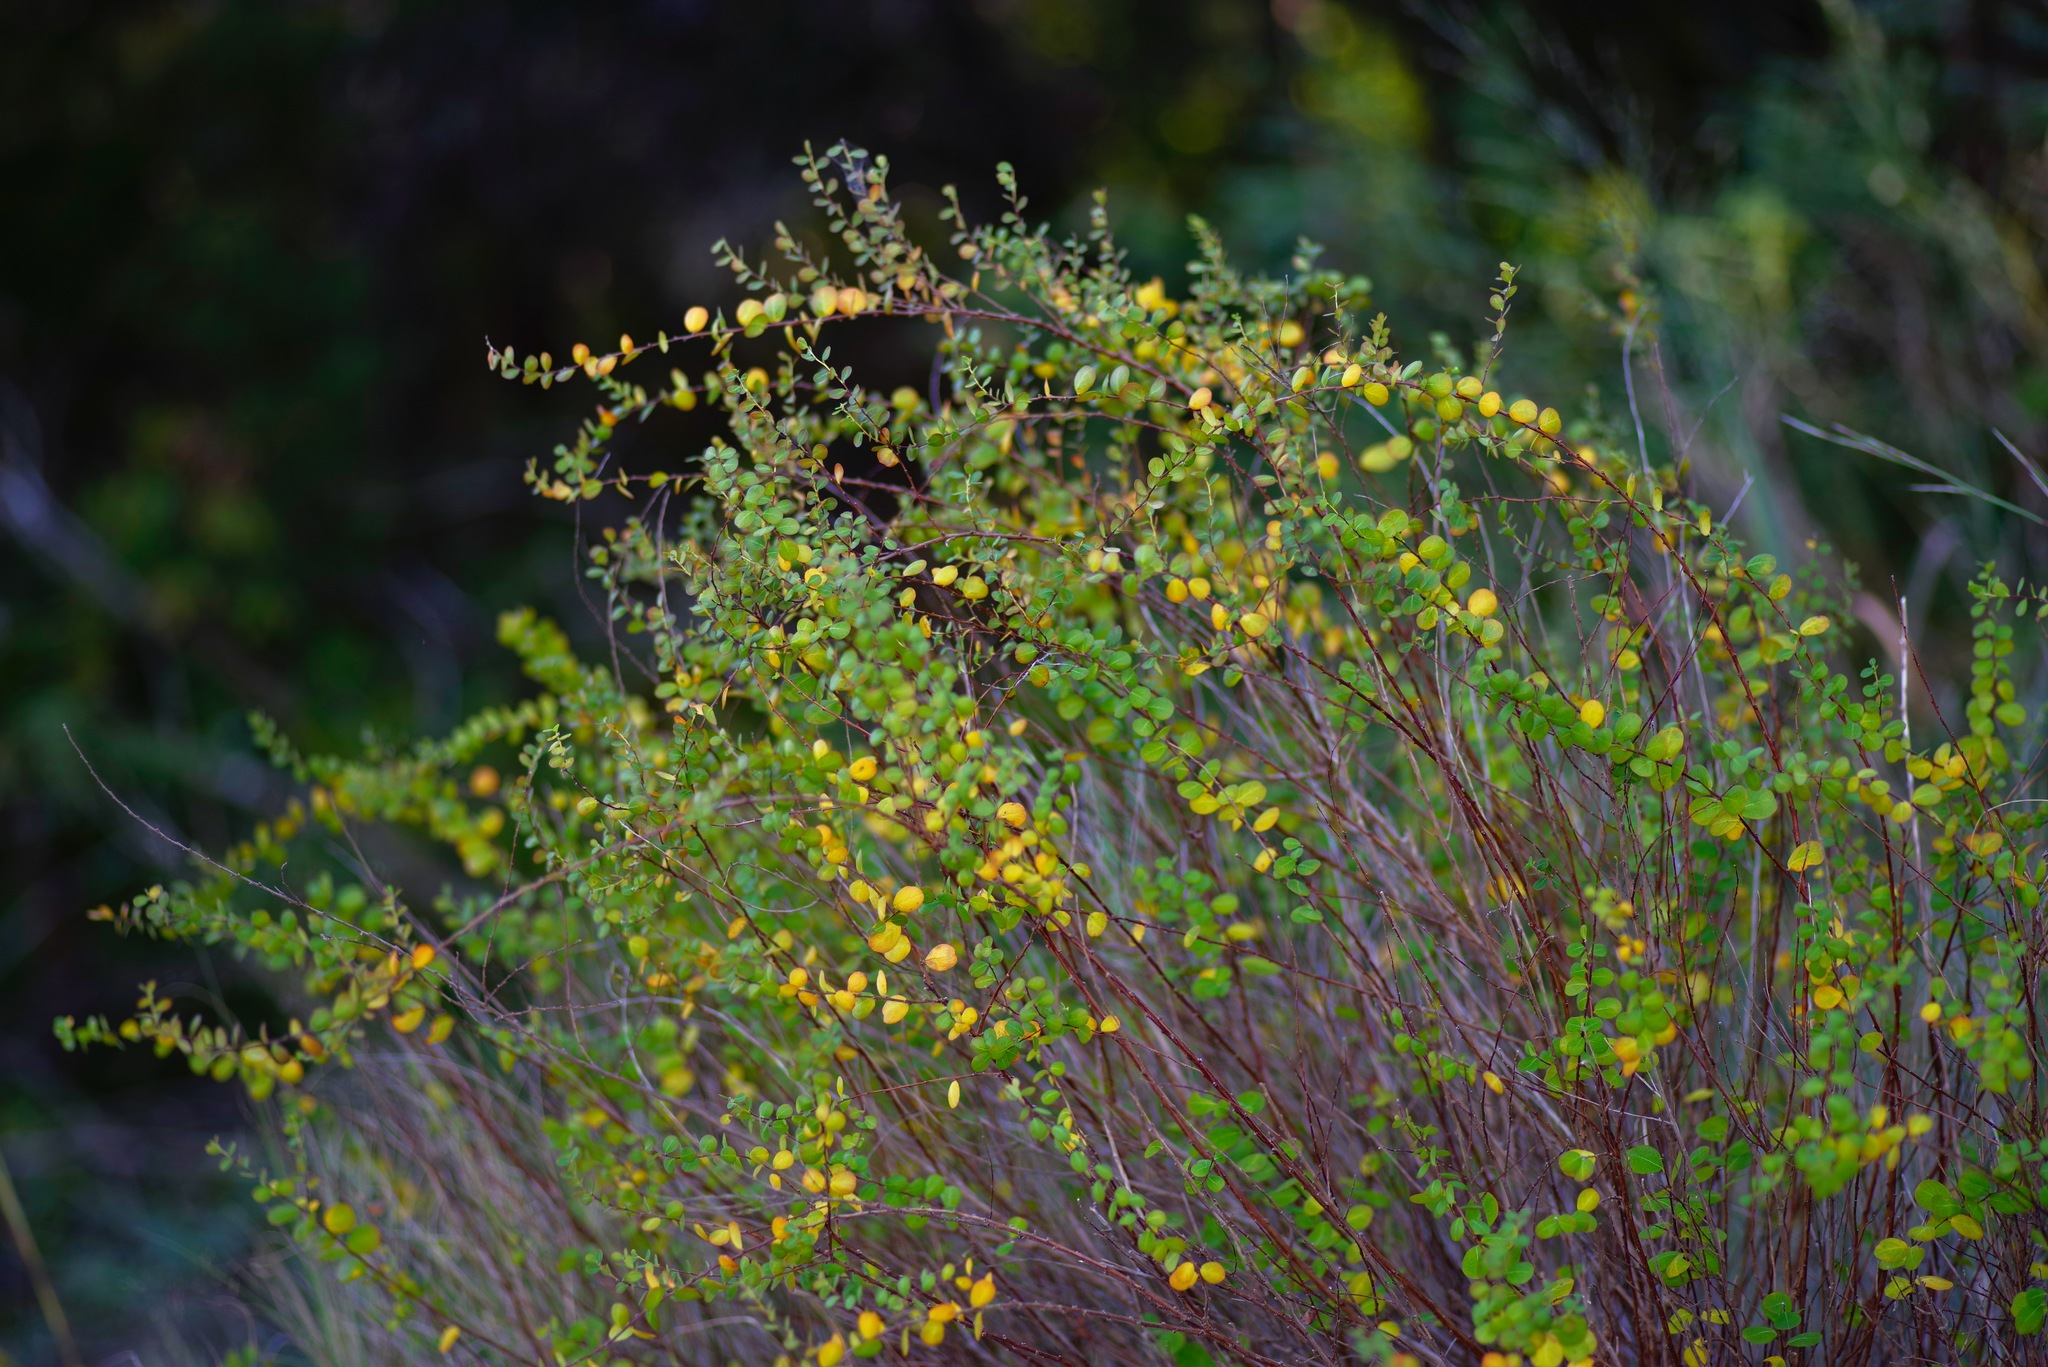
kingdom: Plantae
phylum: Tracheophyta
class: Magnoliopsida
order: Malpighiales
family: Phyllanthaceae
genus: Phyllanthopsis
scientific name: Phyllanthopsis phyllanthoides
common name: Missouri maidenbush
